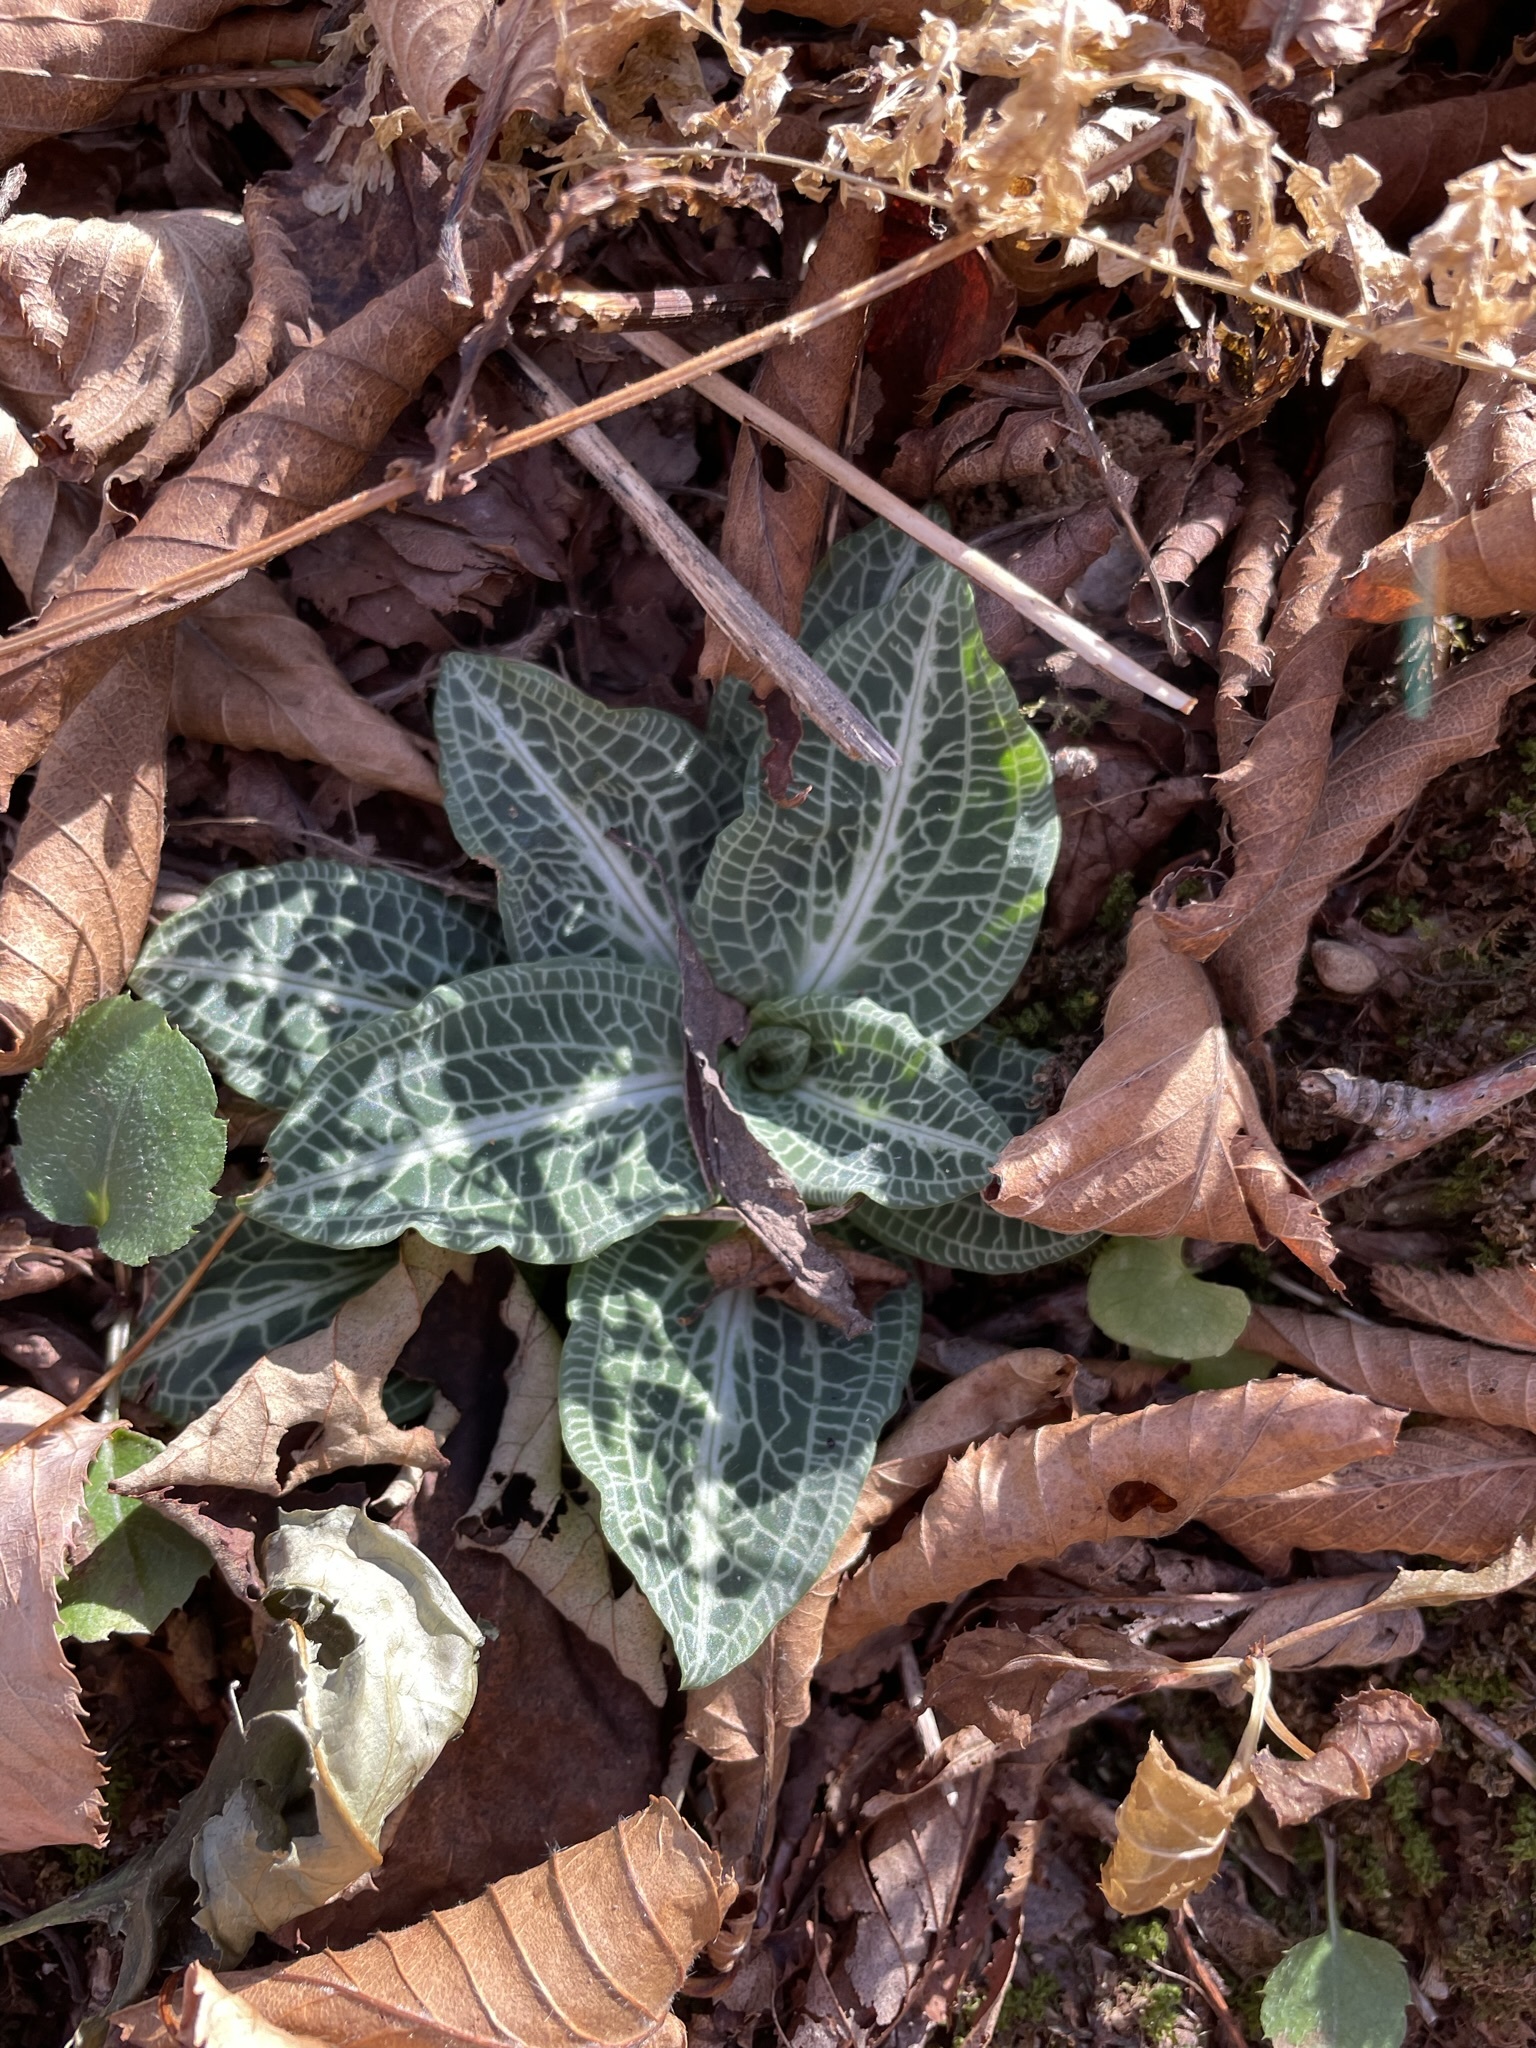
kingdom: Plantae
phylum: Tracheophyta
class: Liliopsida
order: Asparagales
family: Orchidaceae
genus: Goodyera
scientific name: Goodyera pubescens
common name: Downy rattlesnake-plantain
